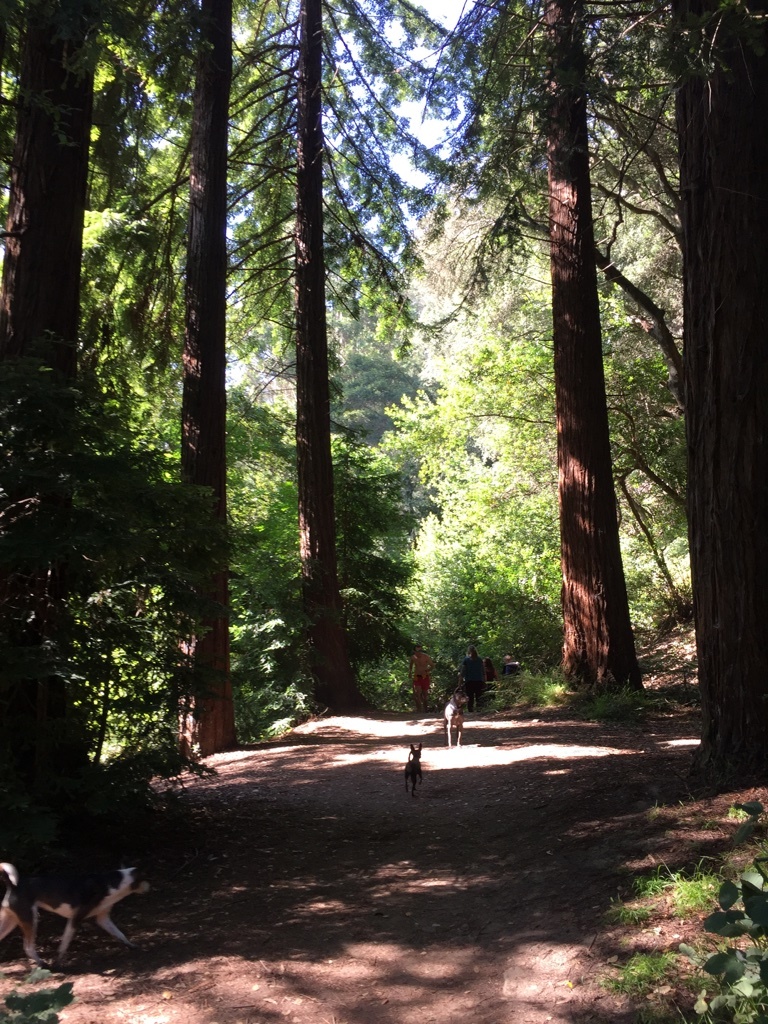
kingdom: Plantae
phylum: Tracheophyta
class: Pinopsida
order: Pinales
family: Cupressaceae
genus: Sequoia
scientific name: Sequoia sempervirens
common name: Coast redwood
